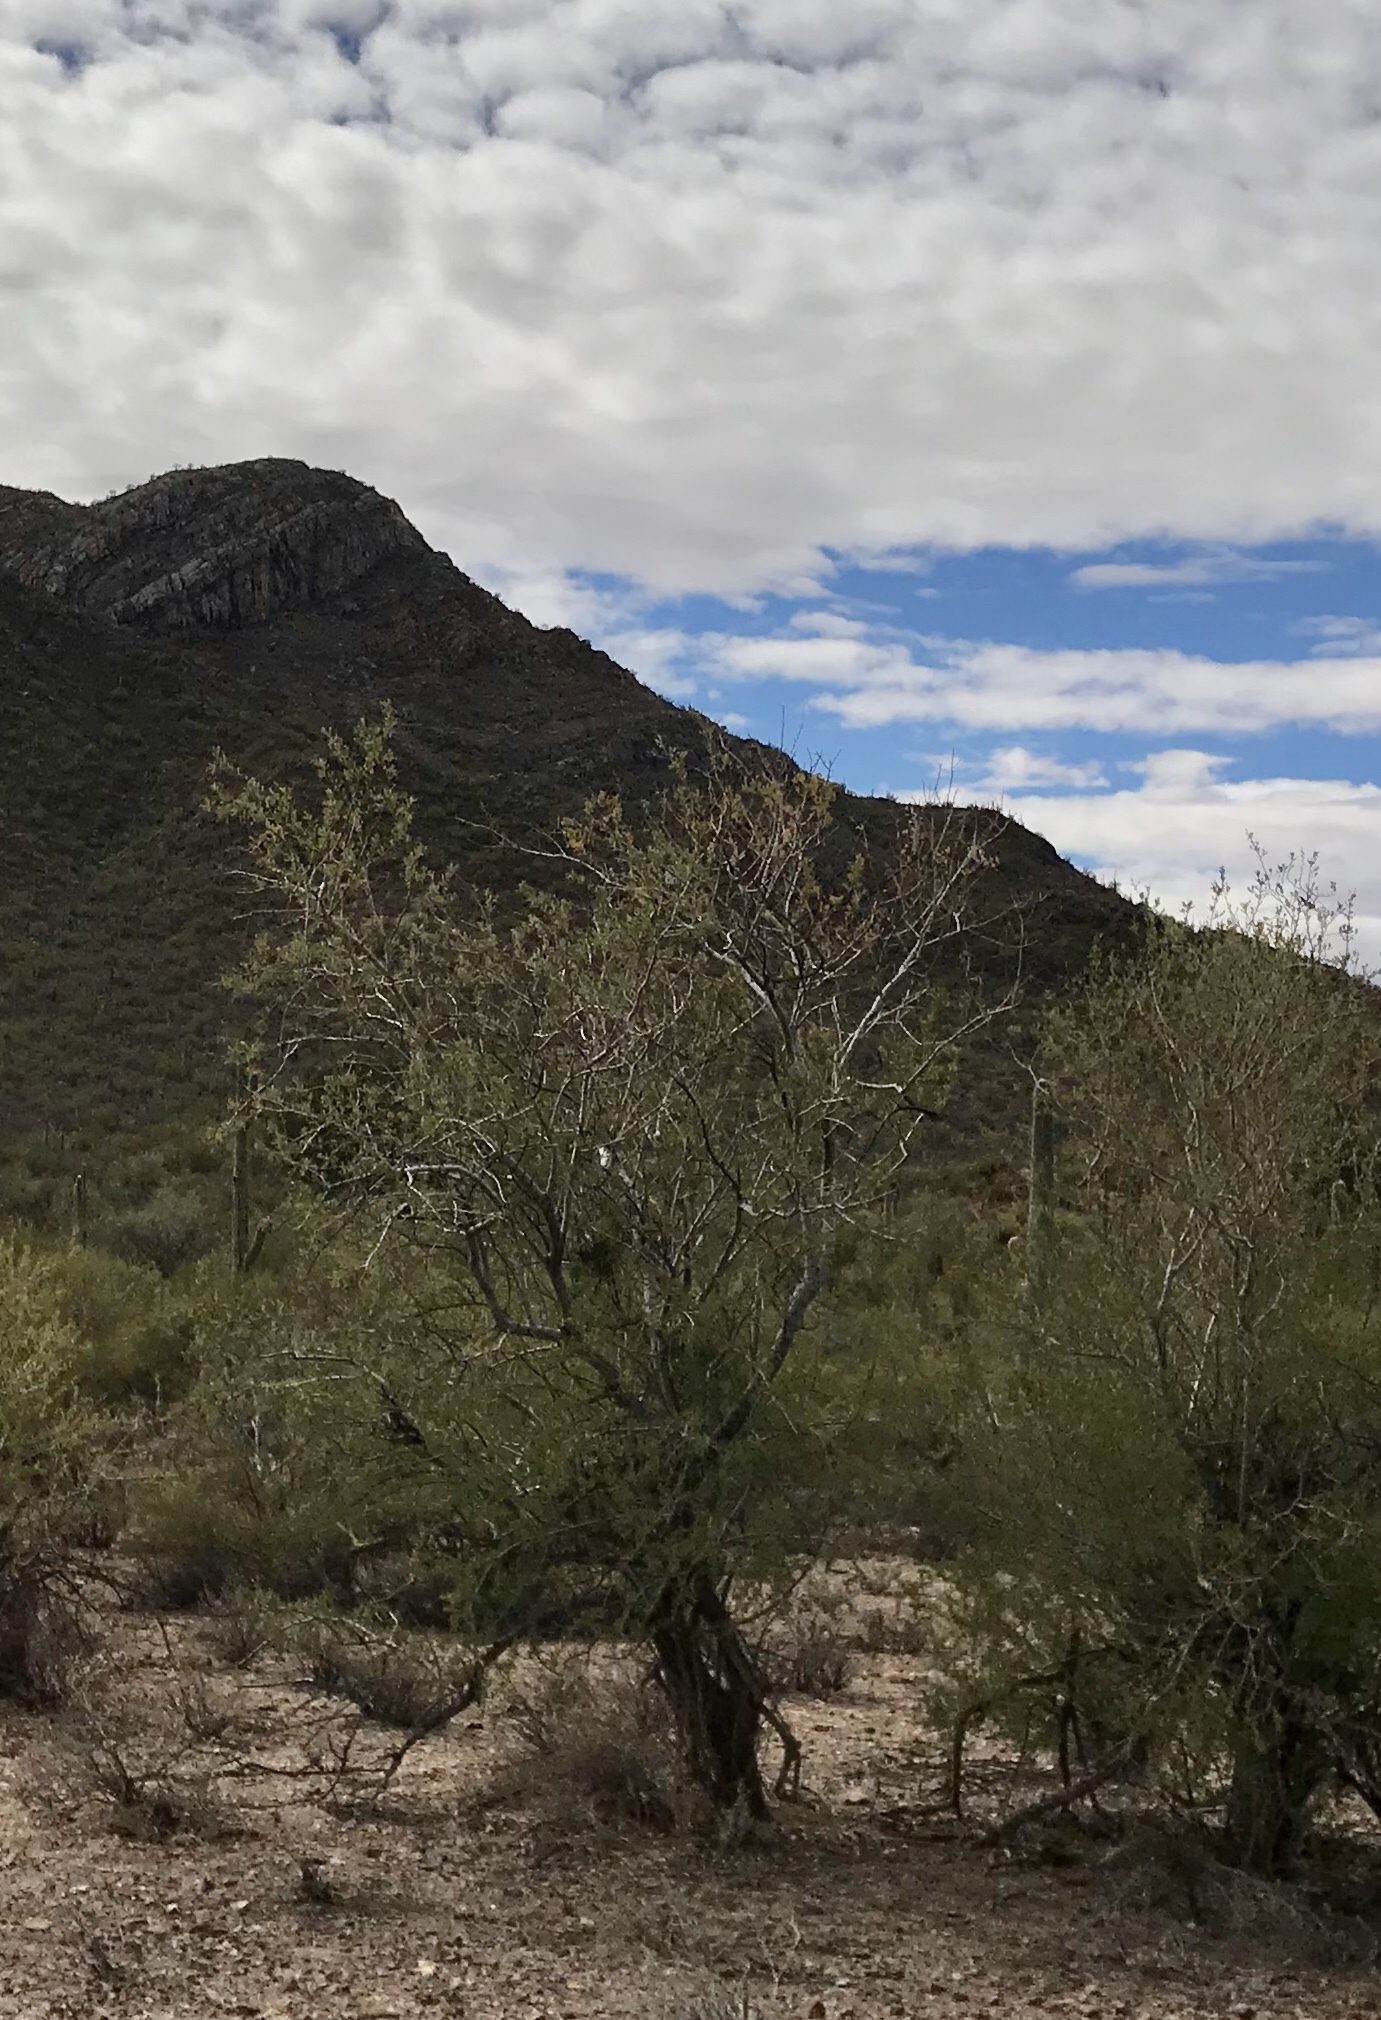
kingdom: Plantae
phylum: Tracheophyta
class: Magnoliopsida
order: Fabales
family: Fabaceae
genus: Olneya
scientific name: Olneya tesota
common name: Desert ironwood
